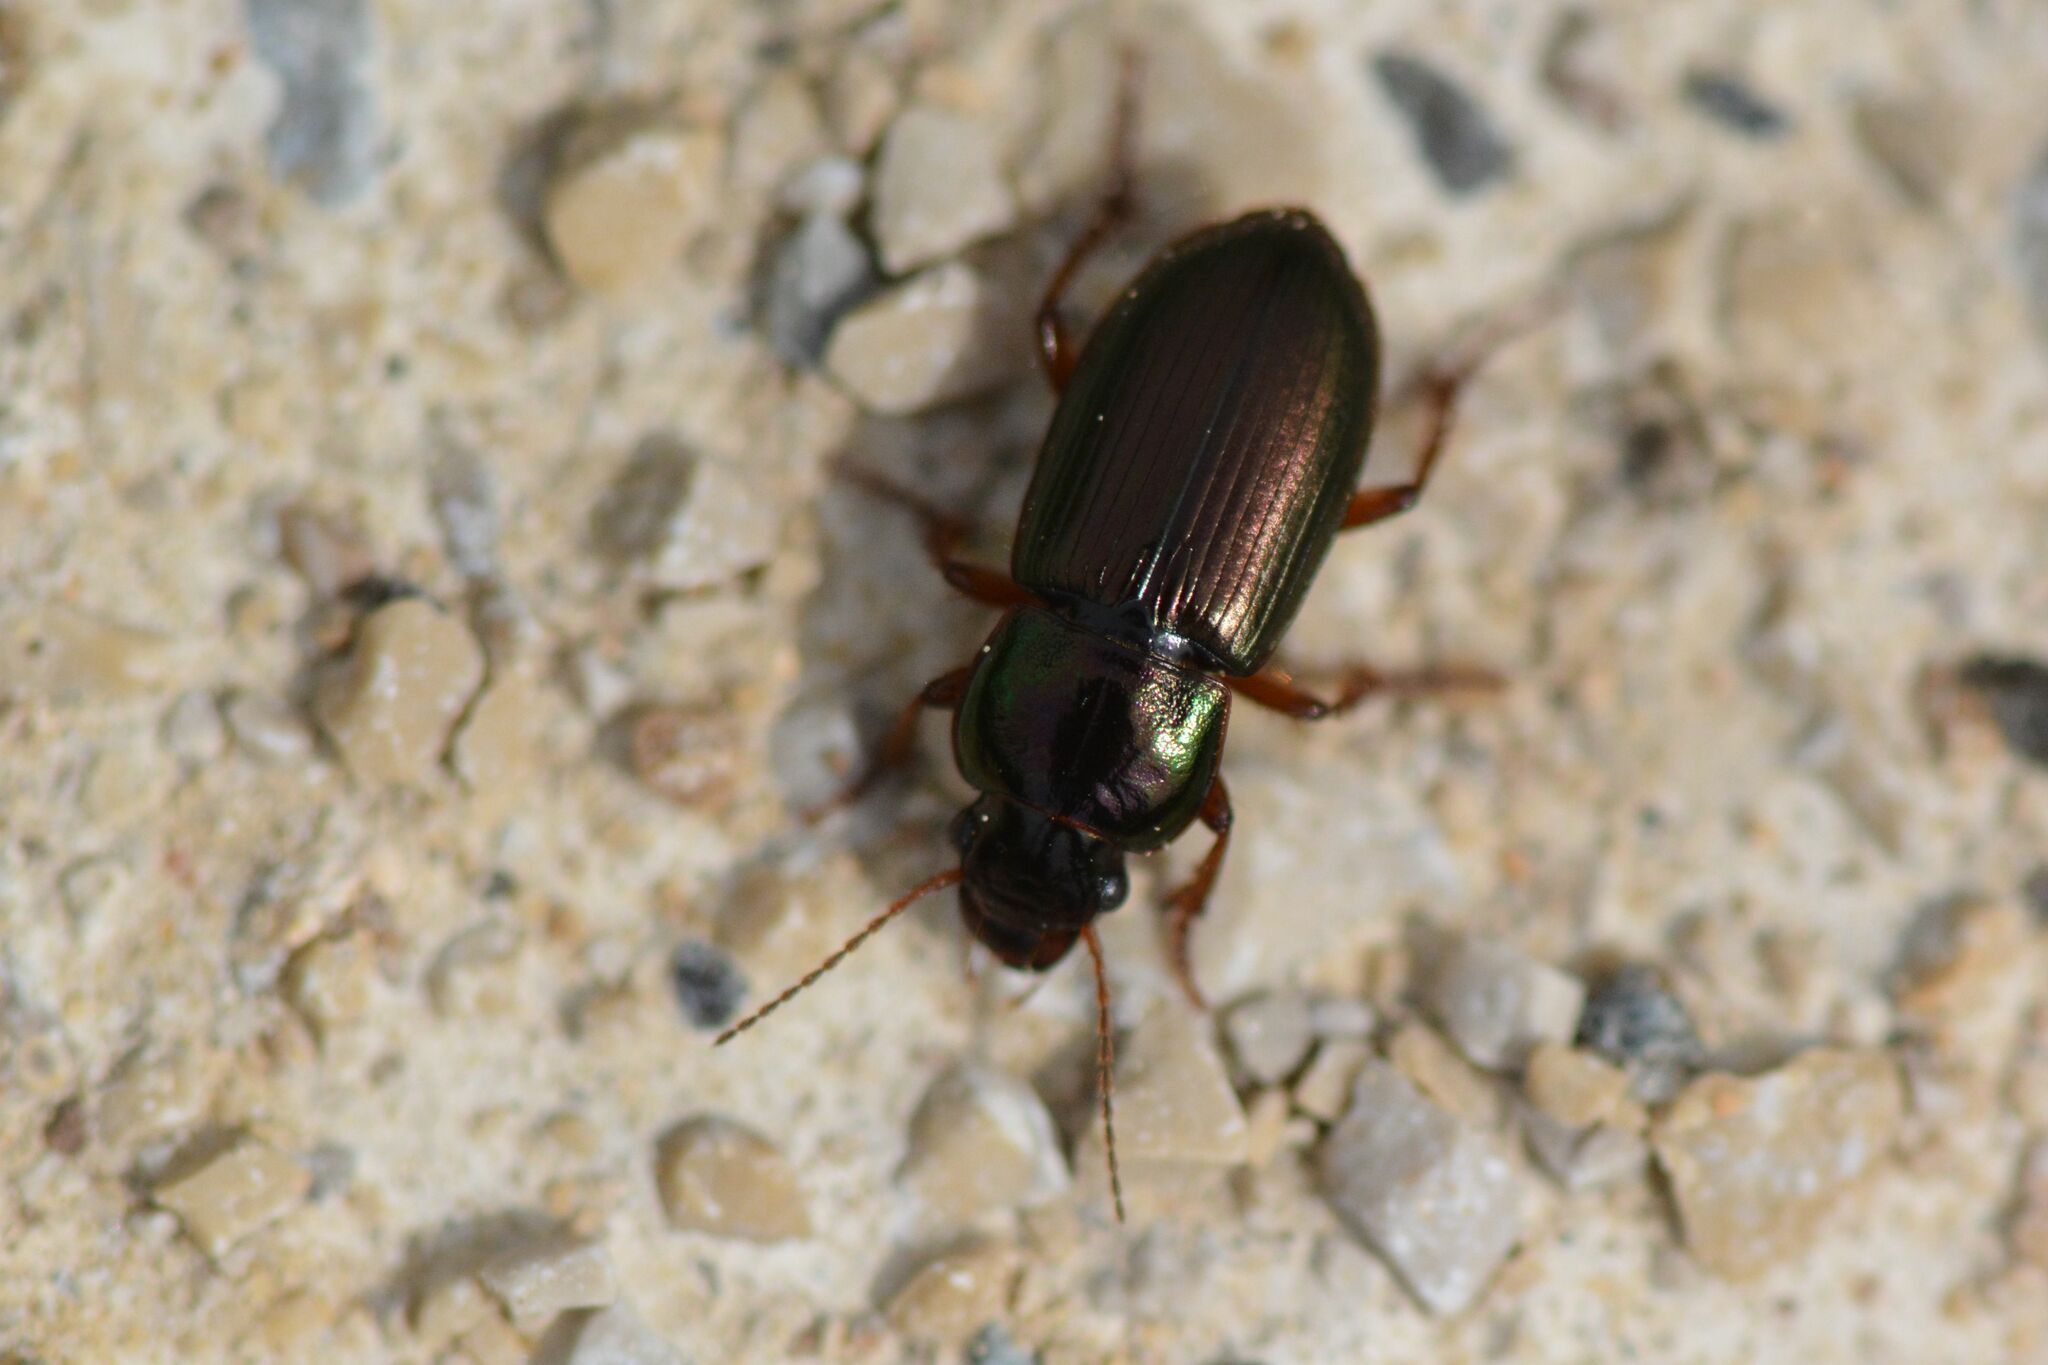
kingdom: Animalia
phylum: Arthropoda
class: Insecta
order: Coleoptera
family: Carabidae
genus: Harpalus
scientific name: Harpalus affinis
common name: Polychrome harp ground beetle
